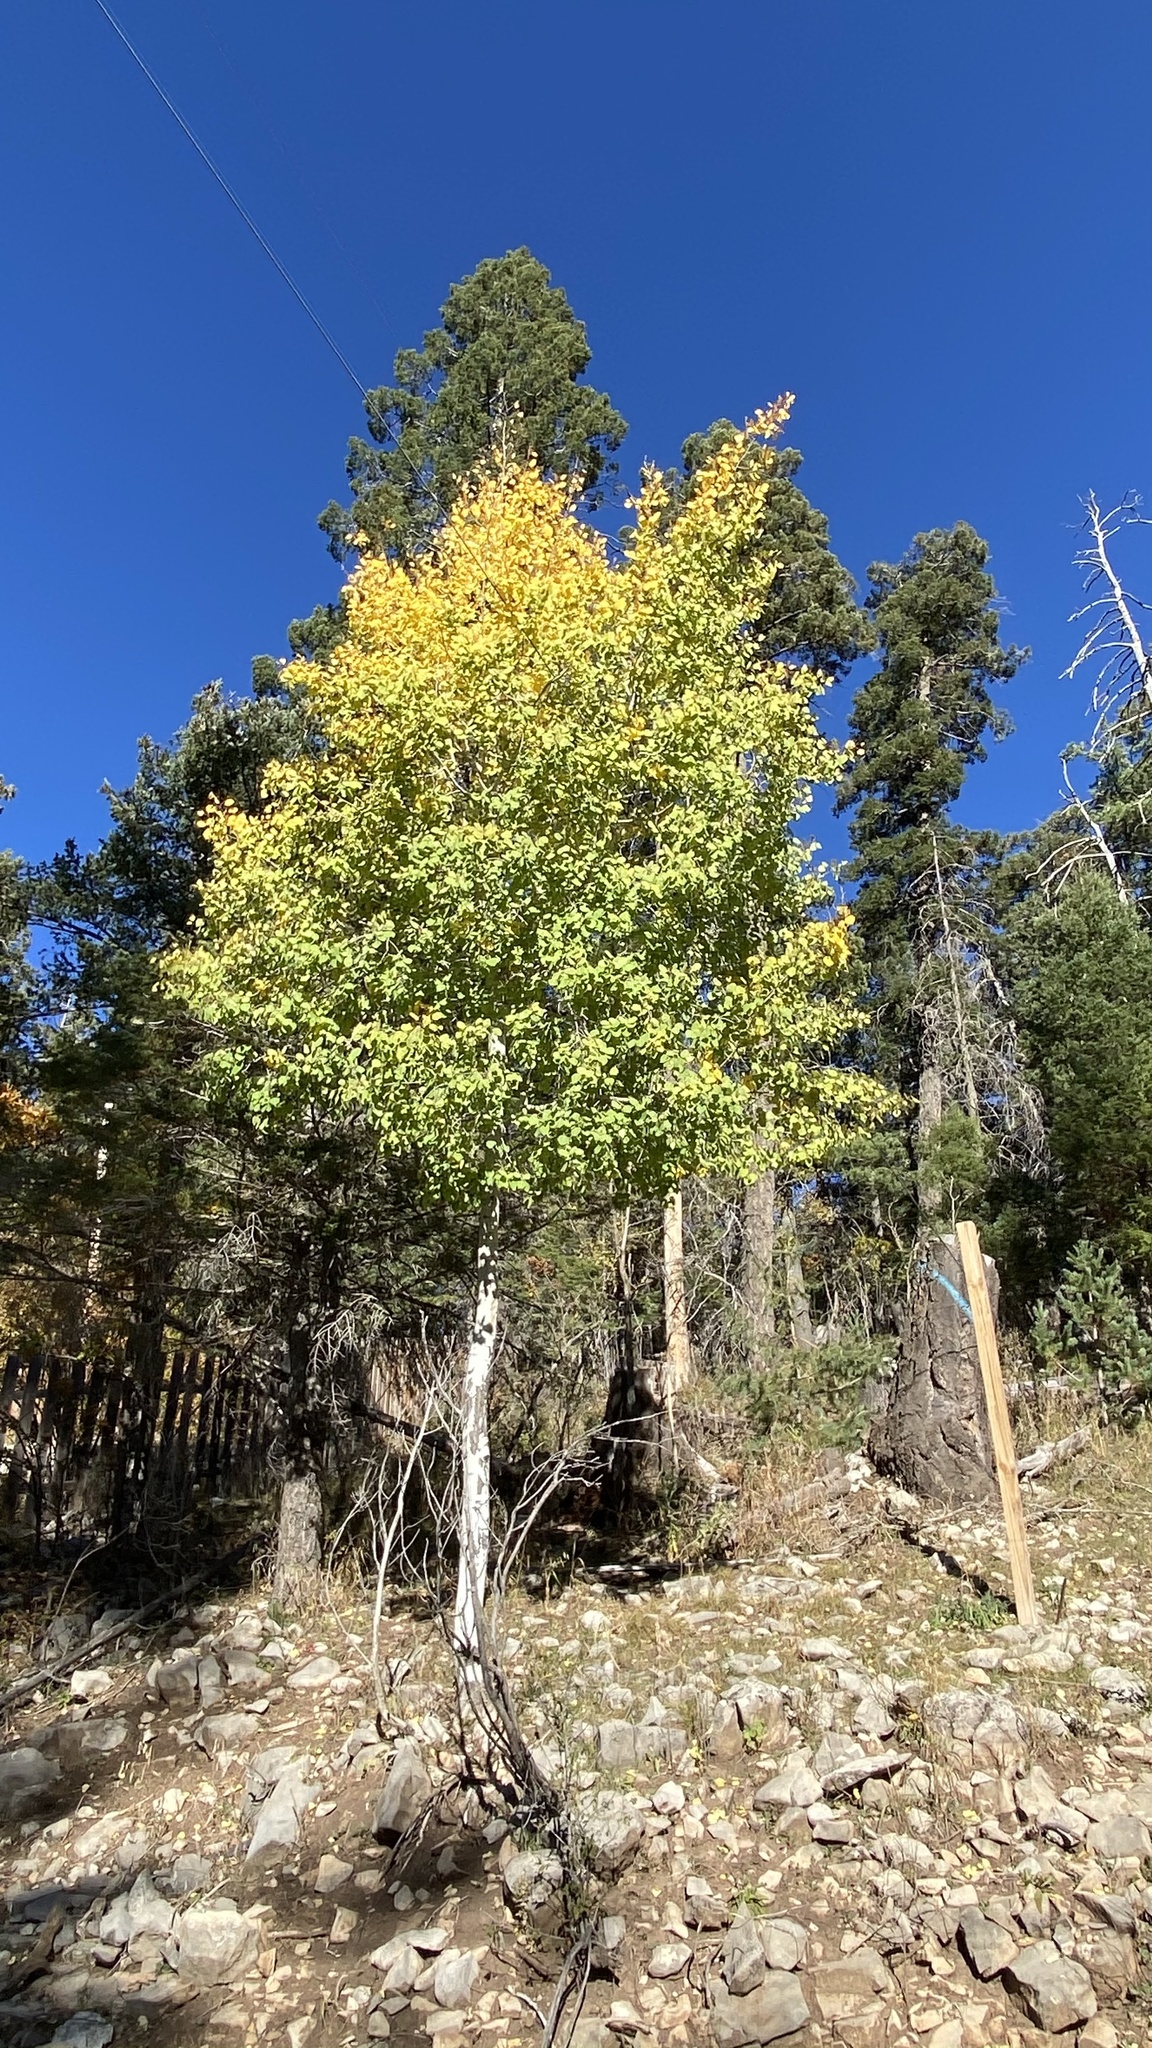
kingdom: Plantae
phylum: Tracheophyta
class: Magnoliopsida
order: Malpighiales
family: Salicaceae
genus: Populus
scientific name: Populus tremuloides
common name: Quaking aspen
